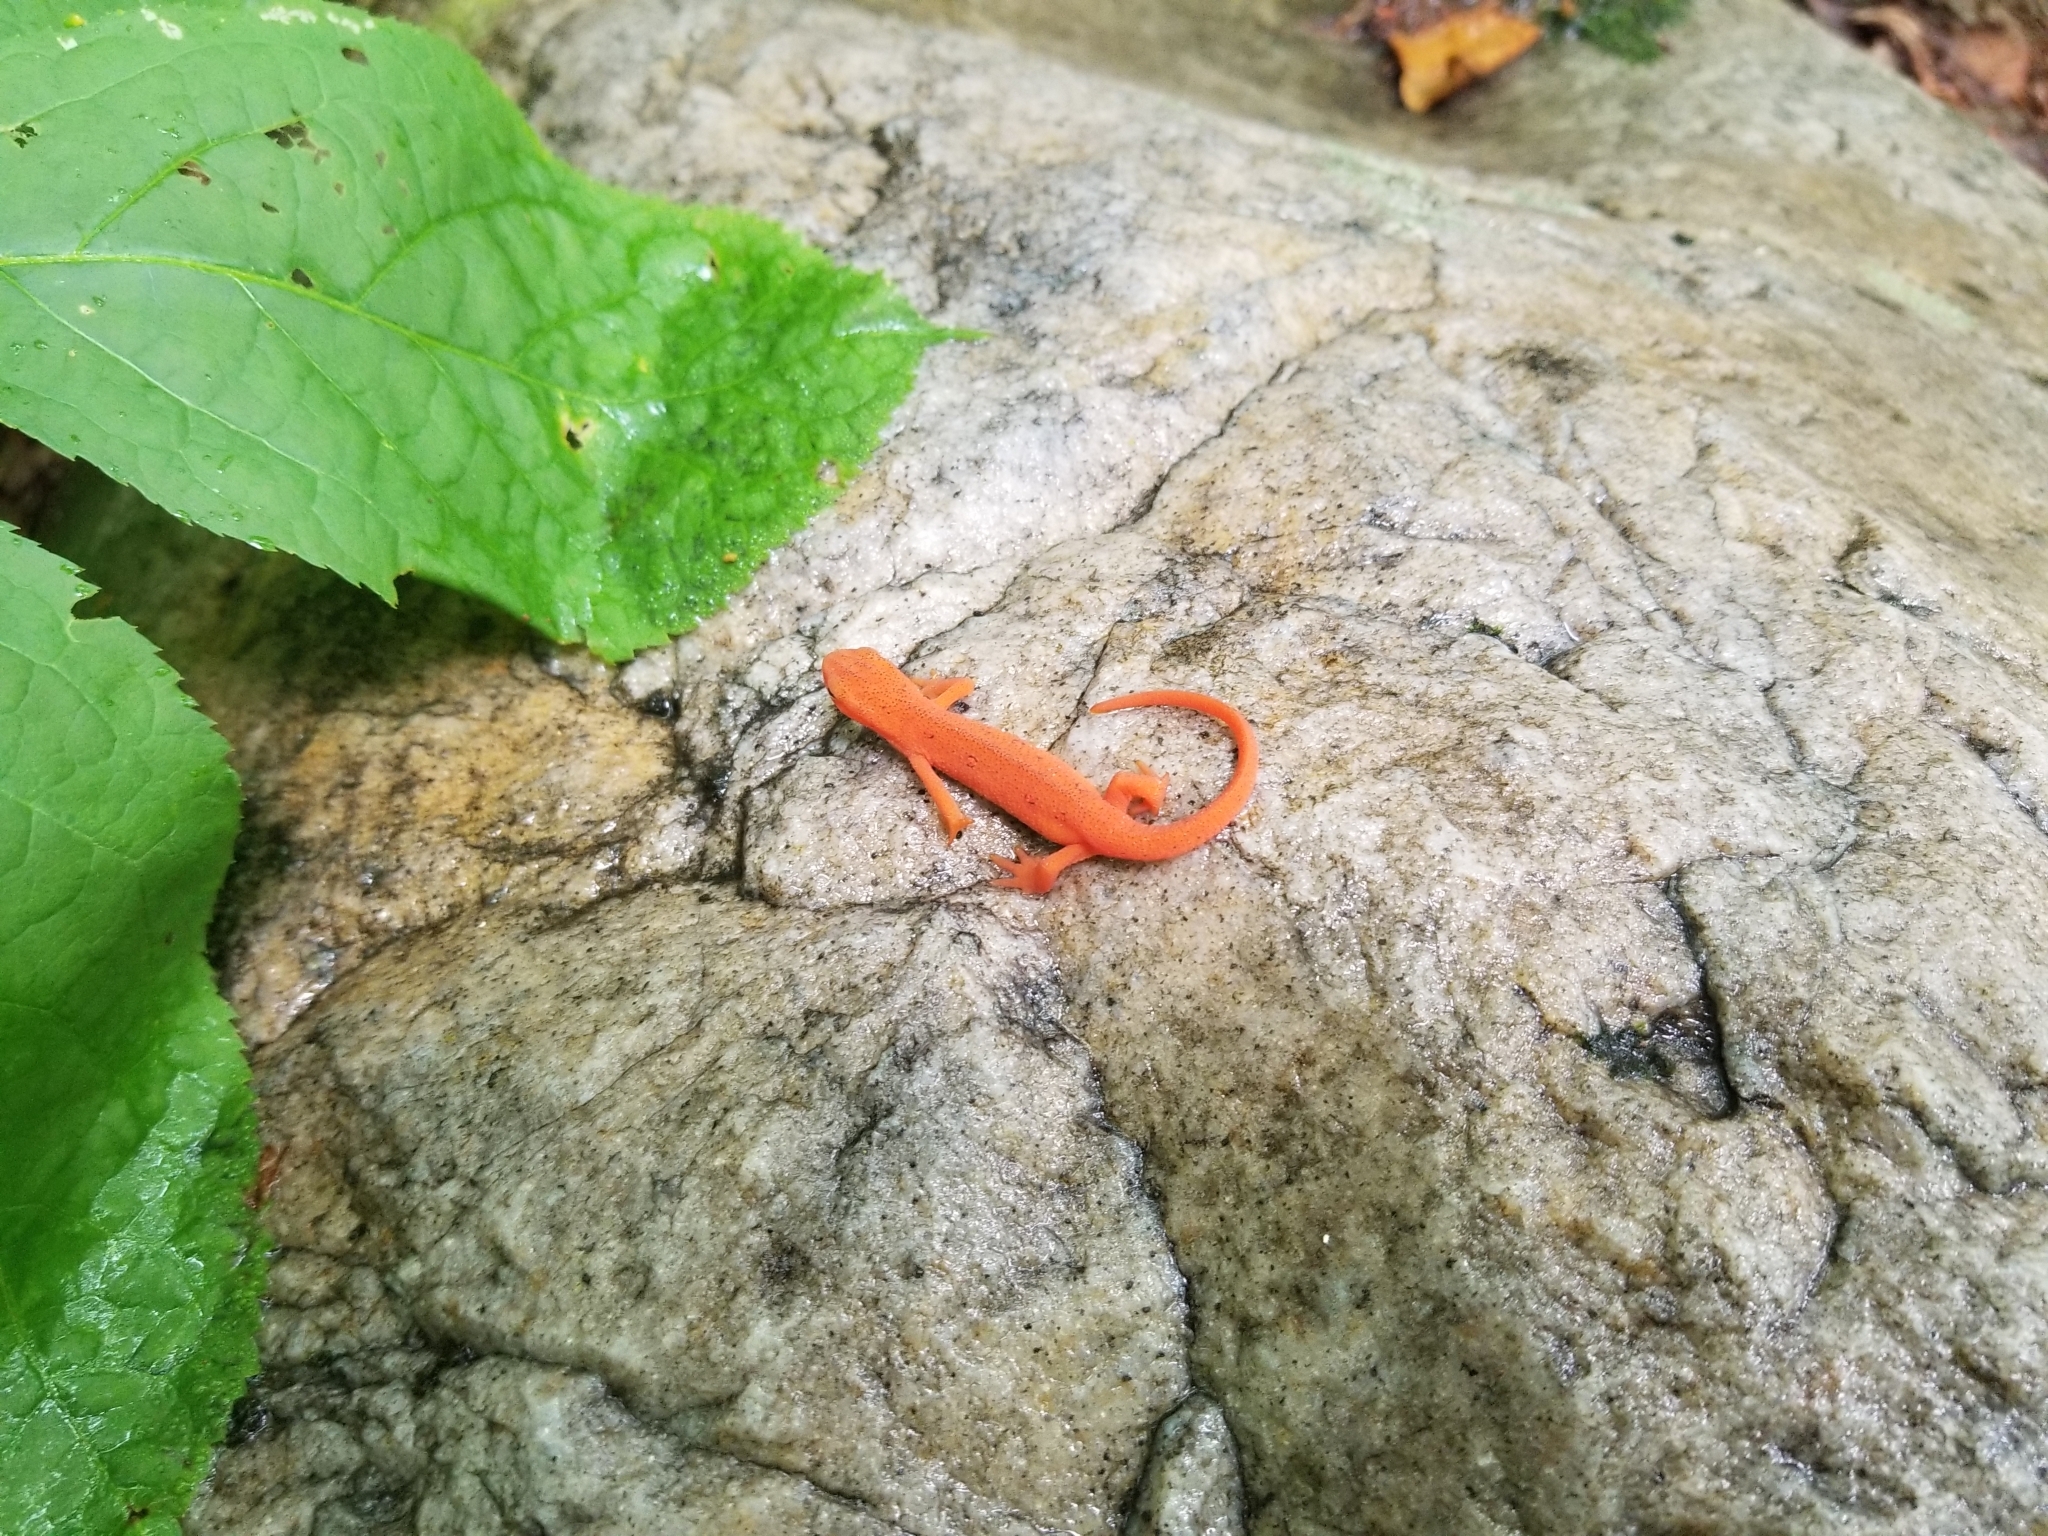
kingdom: Animalia
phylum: Chordata
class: Amphibia
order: Caudata
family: Salamandridae
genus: Notophthalmus
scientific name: Notophthalmus viridescens
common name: Eastern newt
